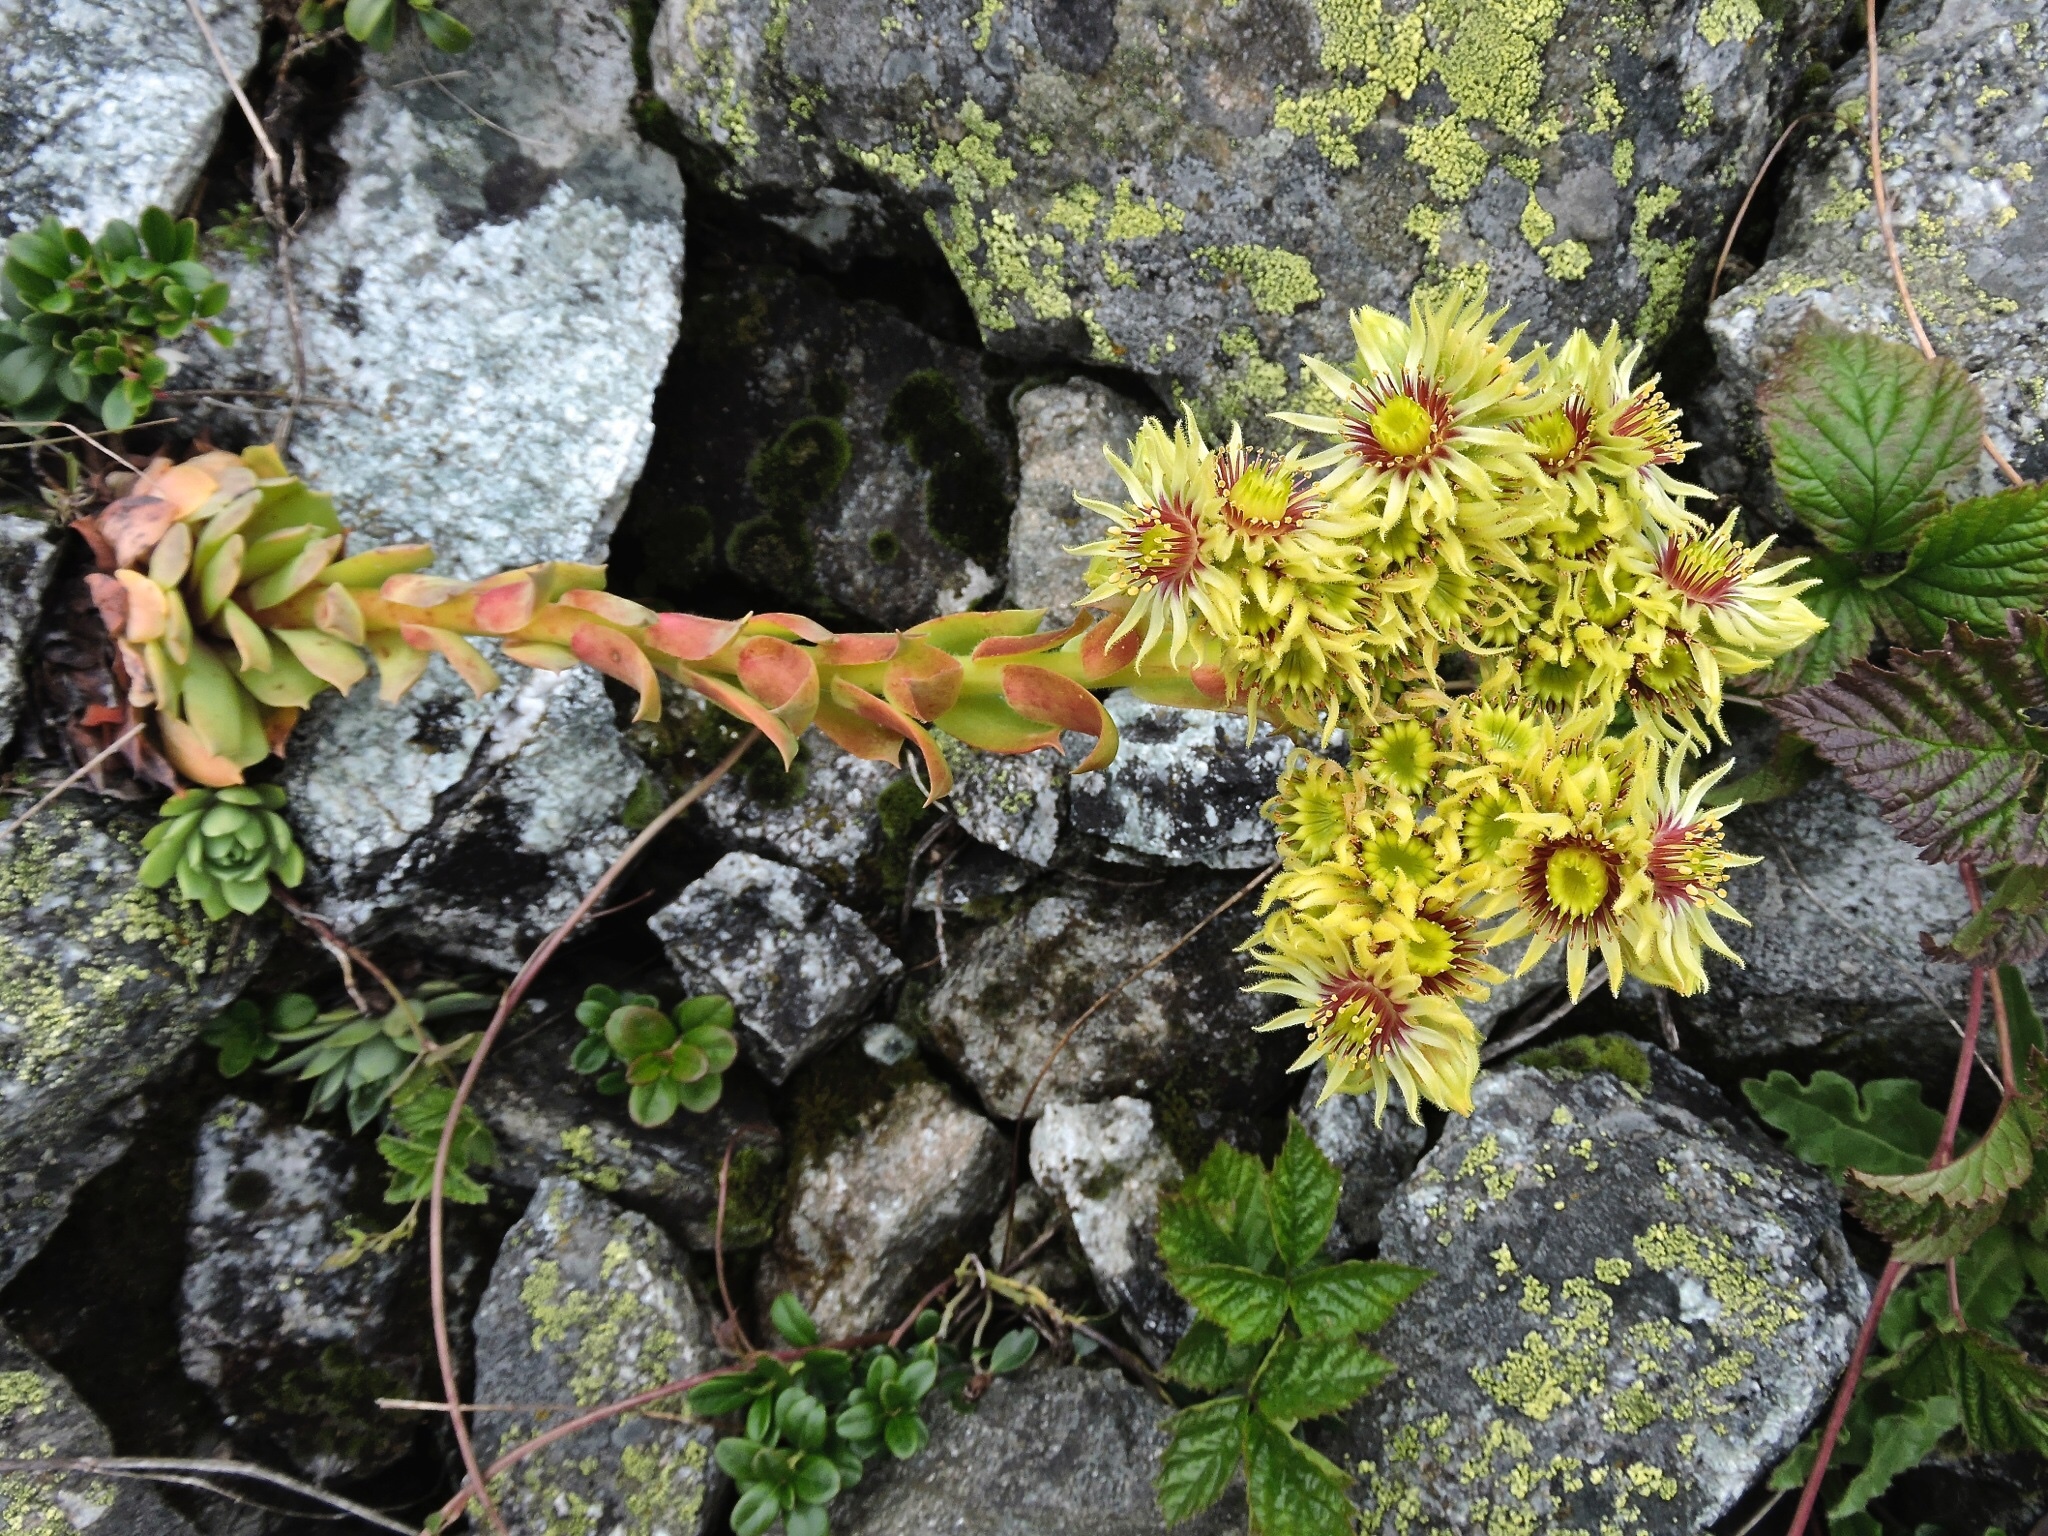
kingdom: Plantae
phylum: Tracheophyta
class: Magnoliopsida
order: Saxifragales
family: Crassulaceae
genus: Sempervivum
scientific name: Sempervivum wulfenii
